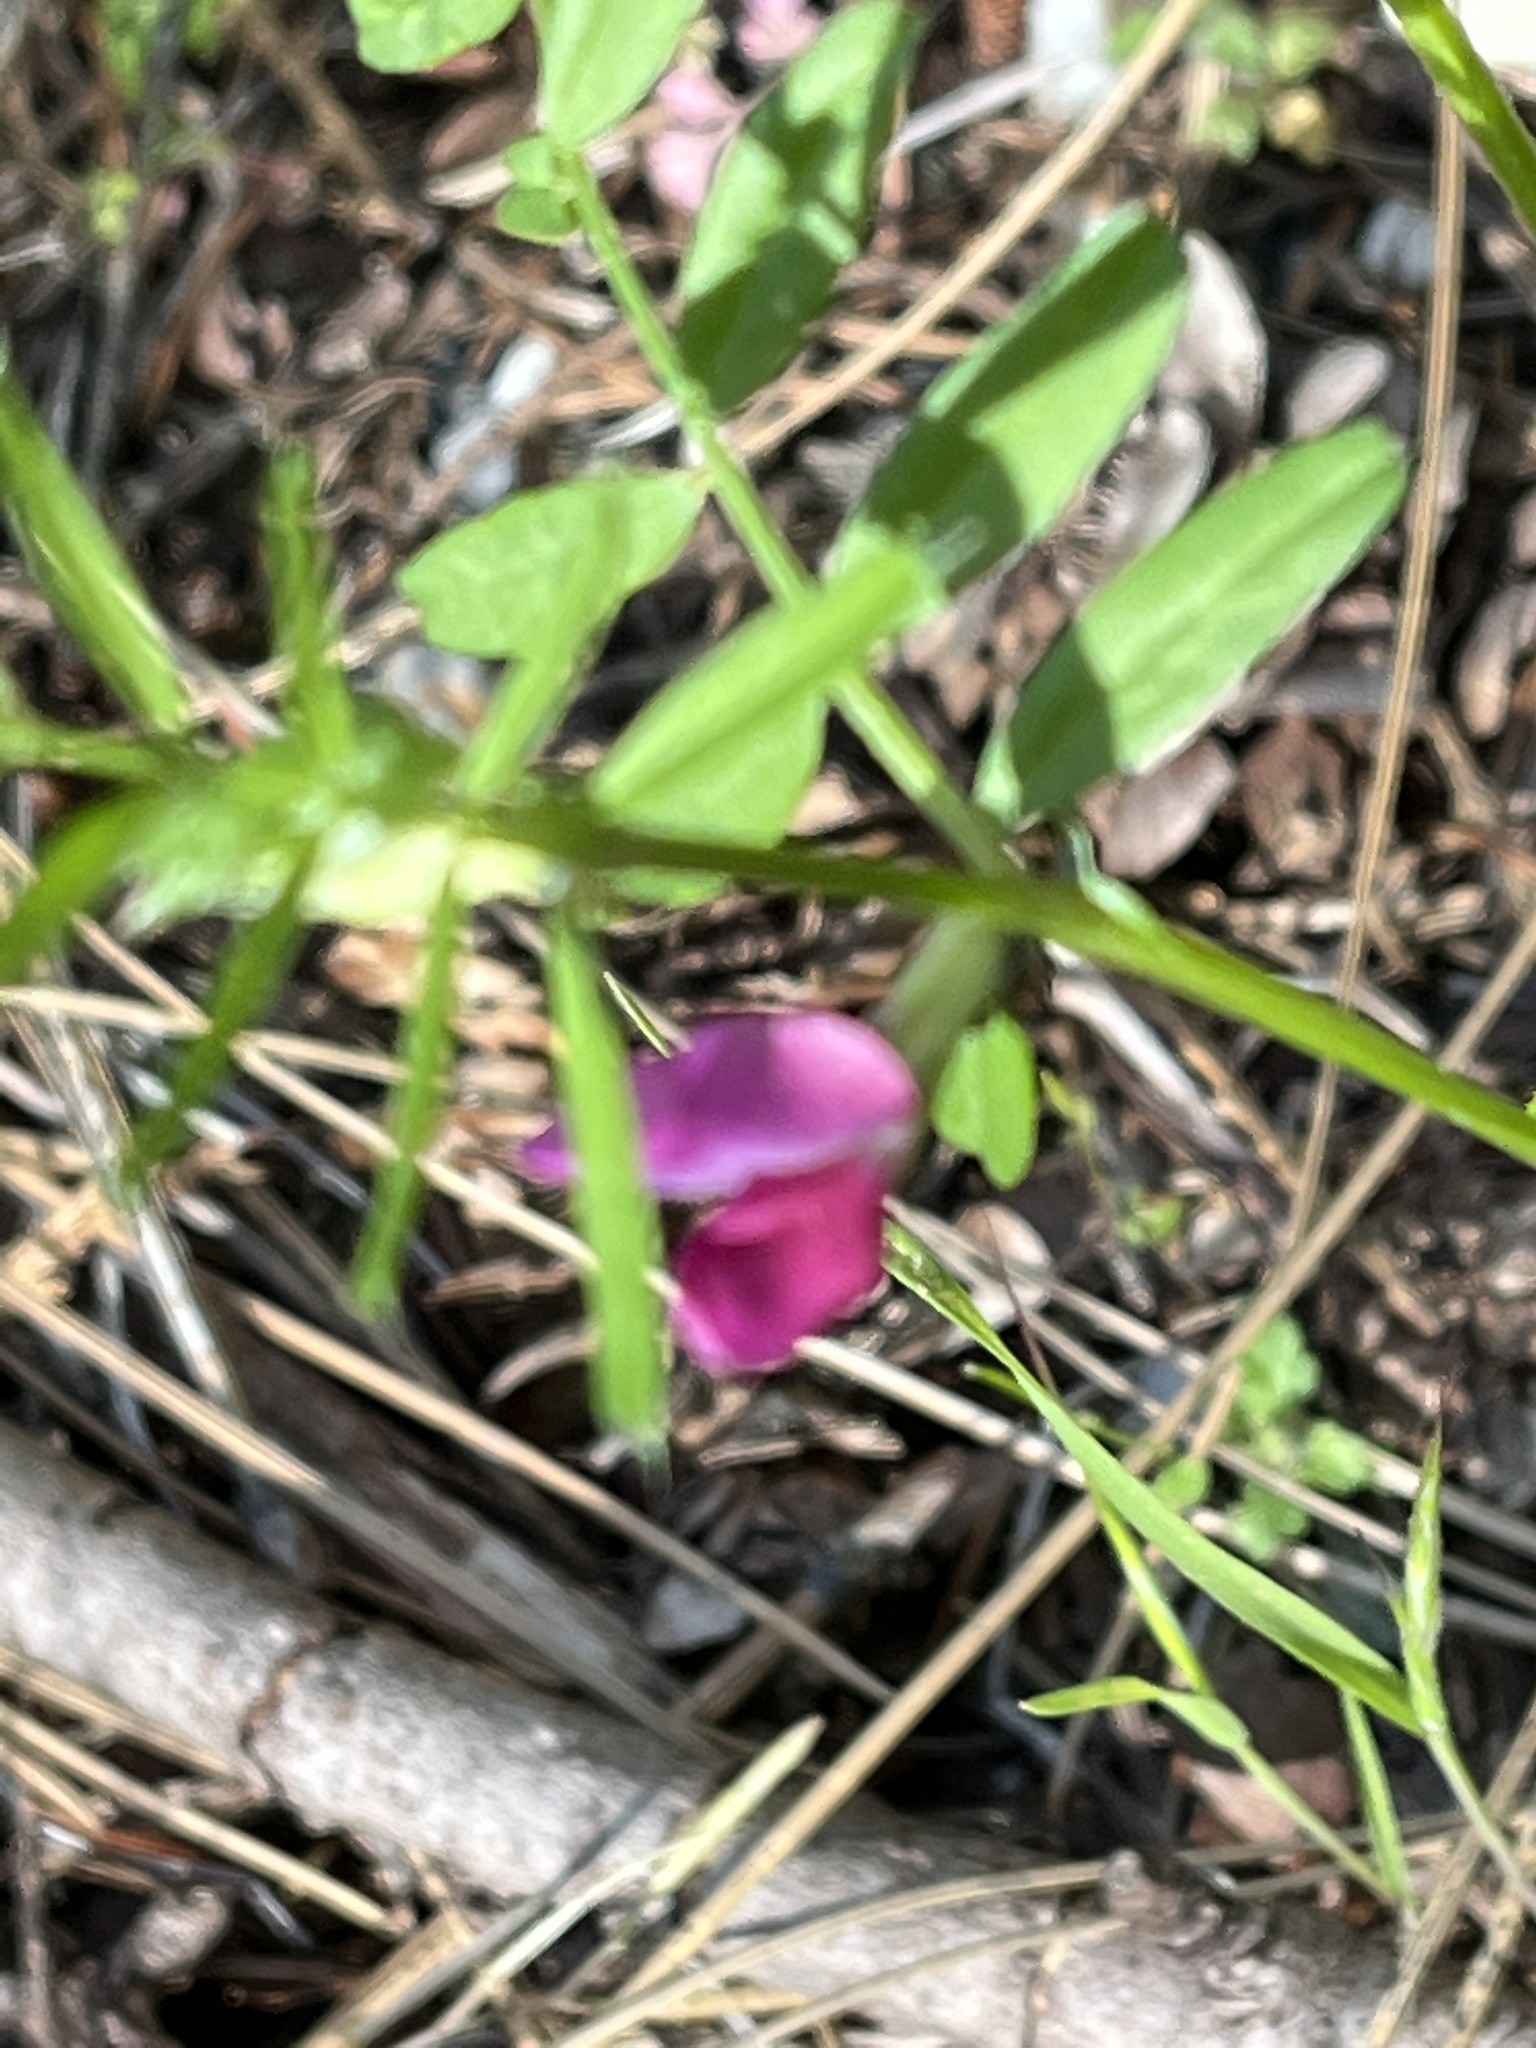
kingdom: Plantae
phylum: Tracheophyta
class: Magnoliopsida
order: Fabales
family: Fabaceae
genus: Vicia
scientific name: Vicia sativa
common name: Garden vetch
